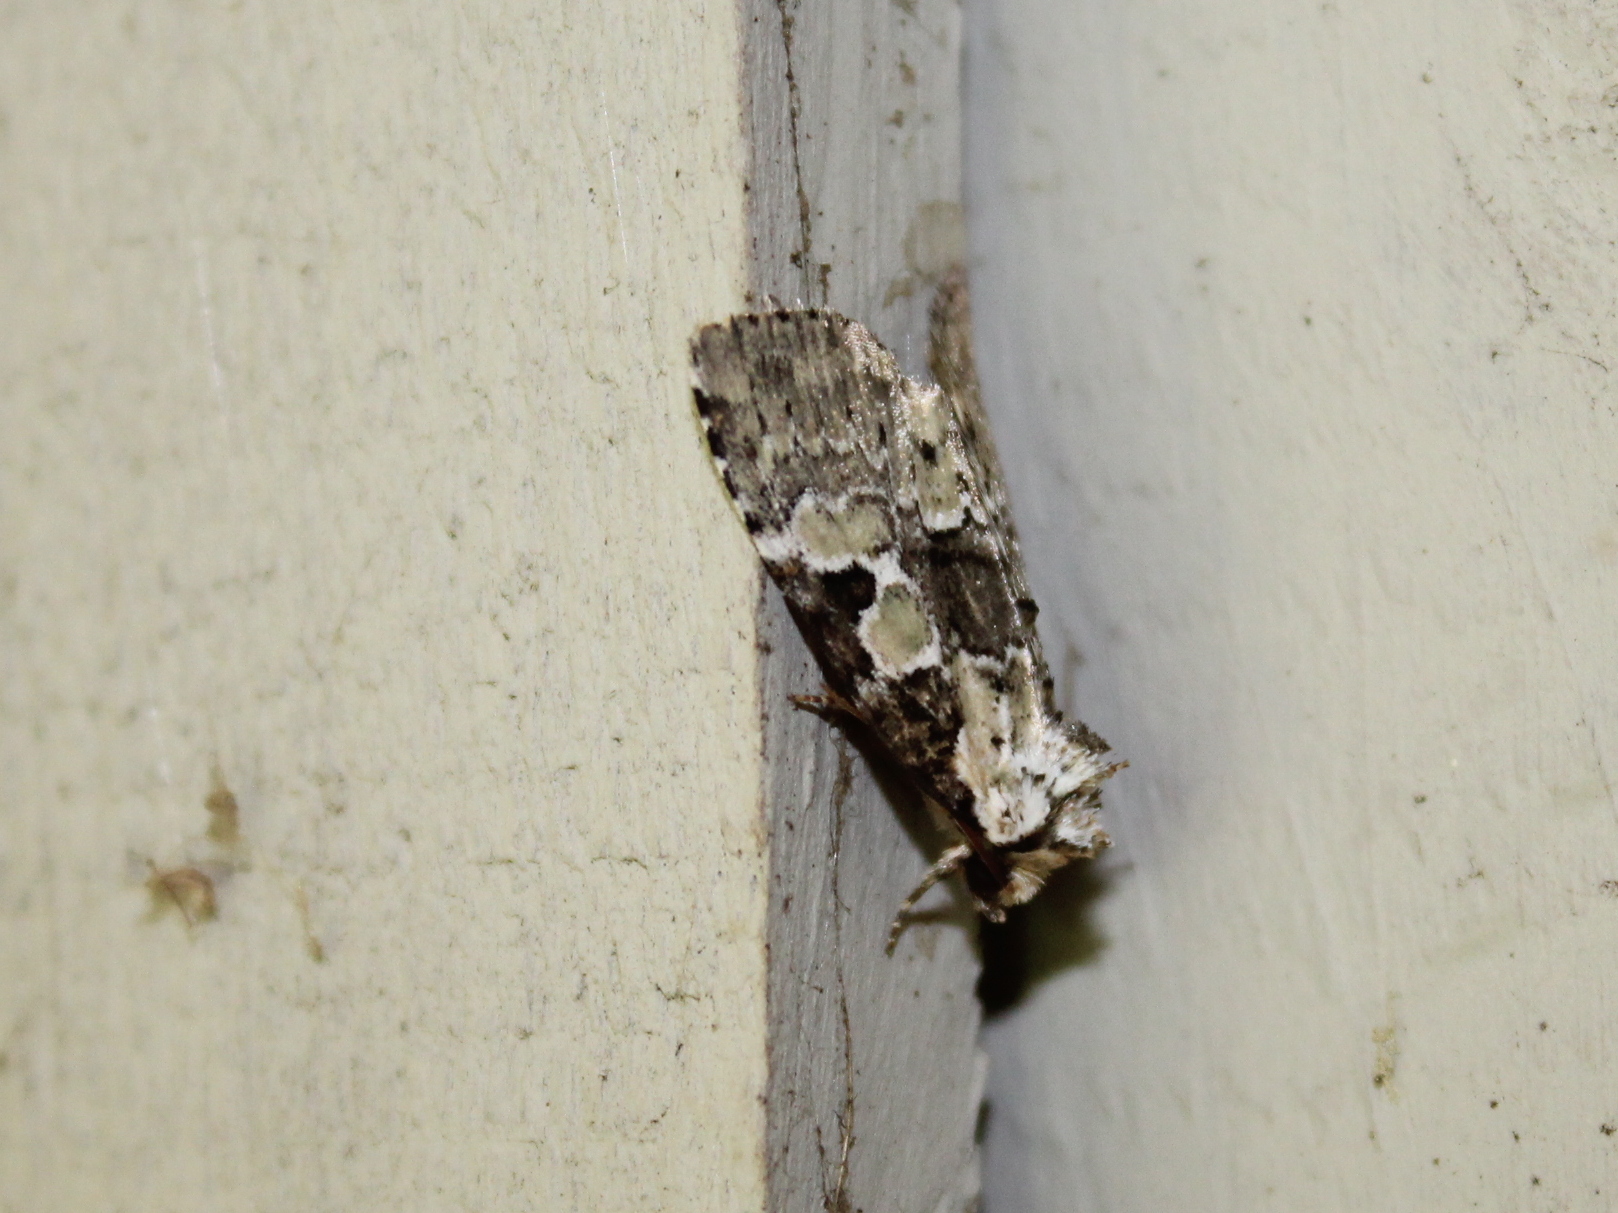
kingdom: Animalia
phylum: Arthropoda
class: Insecta
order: Lepidoptera
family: Noctuidae
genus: Leuconycta
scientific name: Leuconycta lepidula
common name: Marbled-green leuconycta moth
